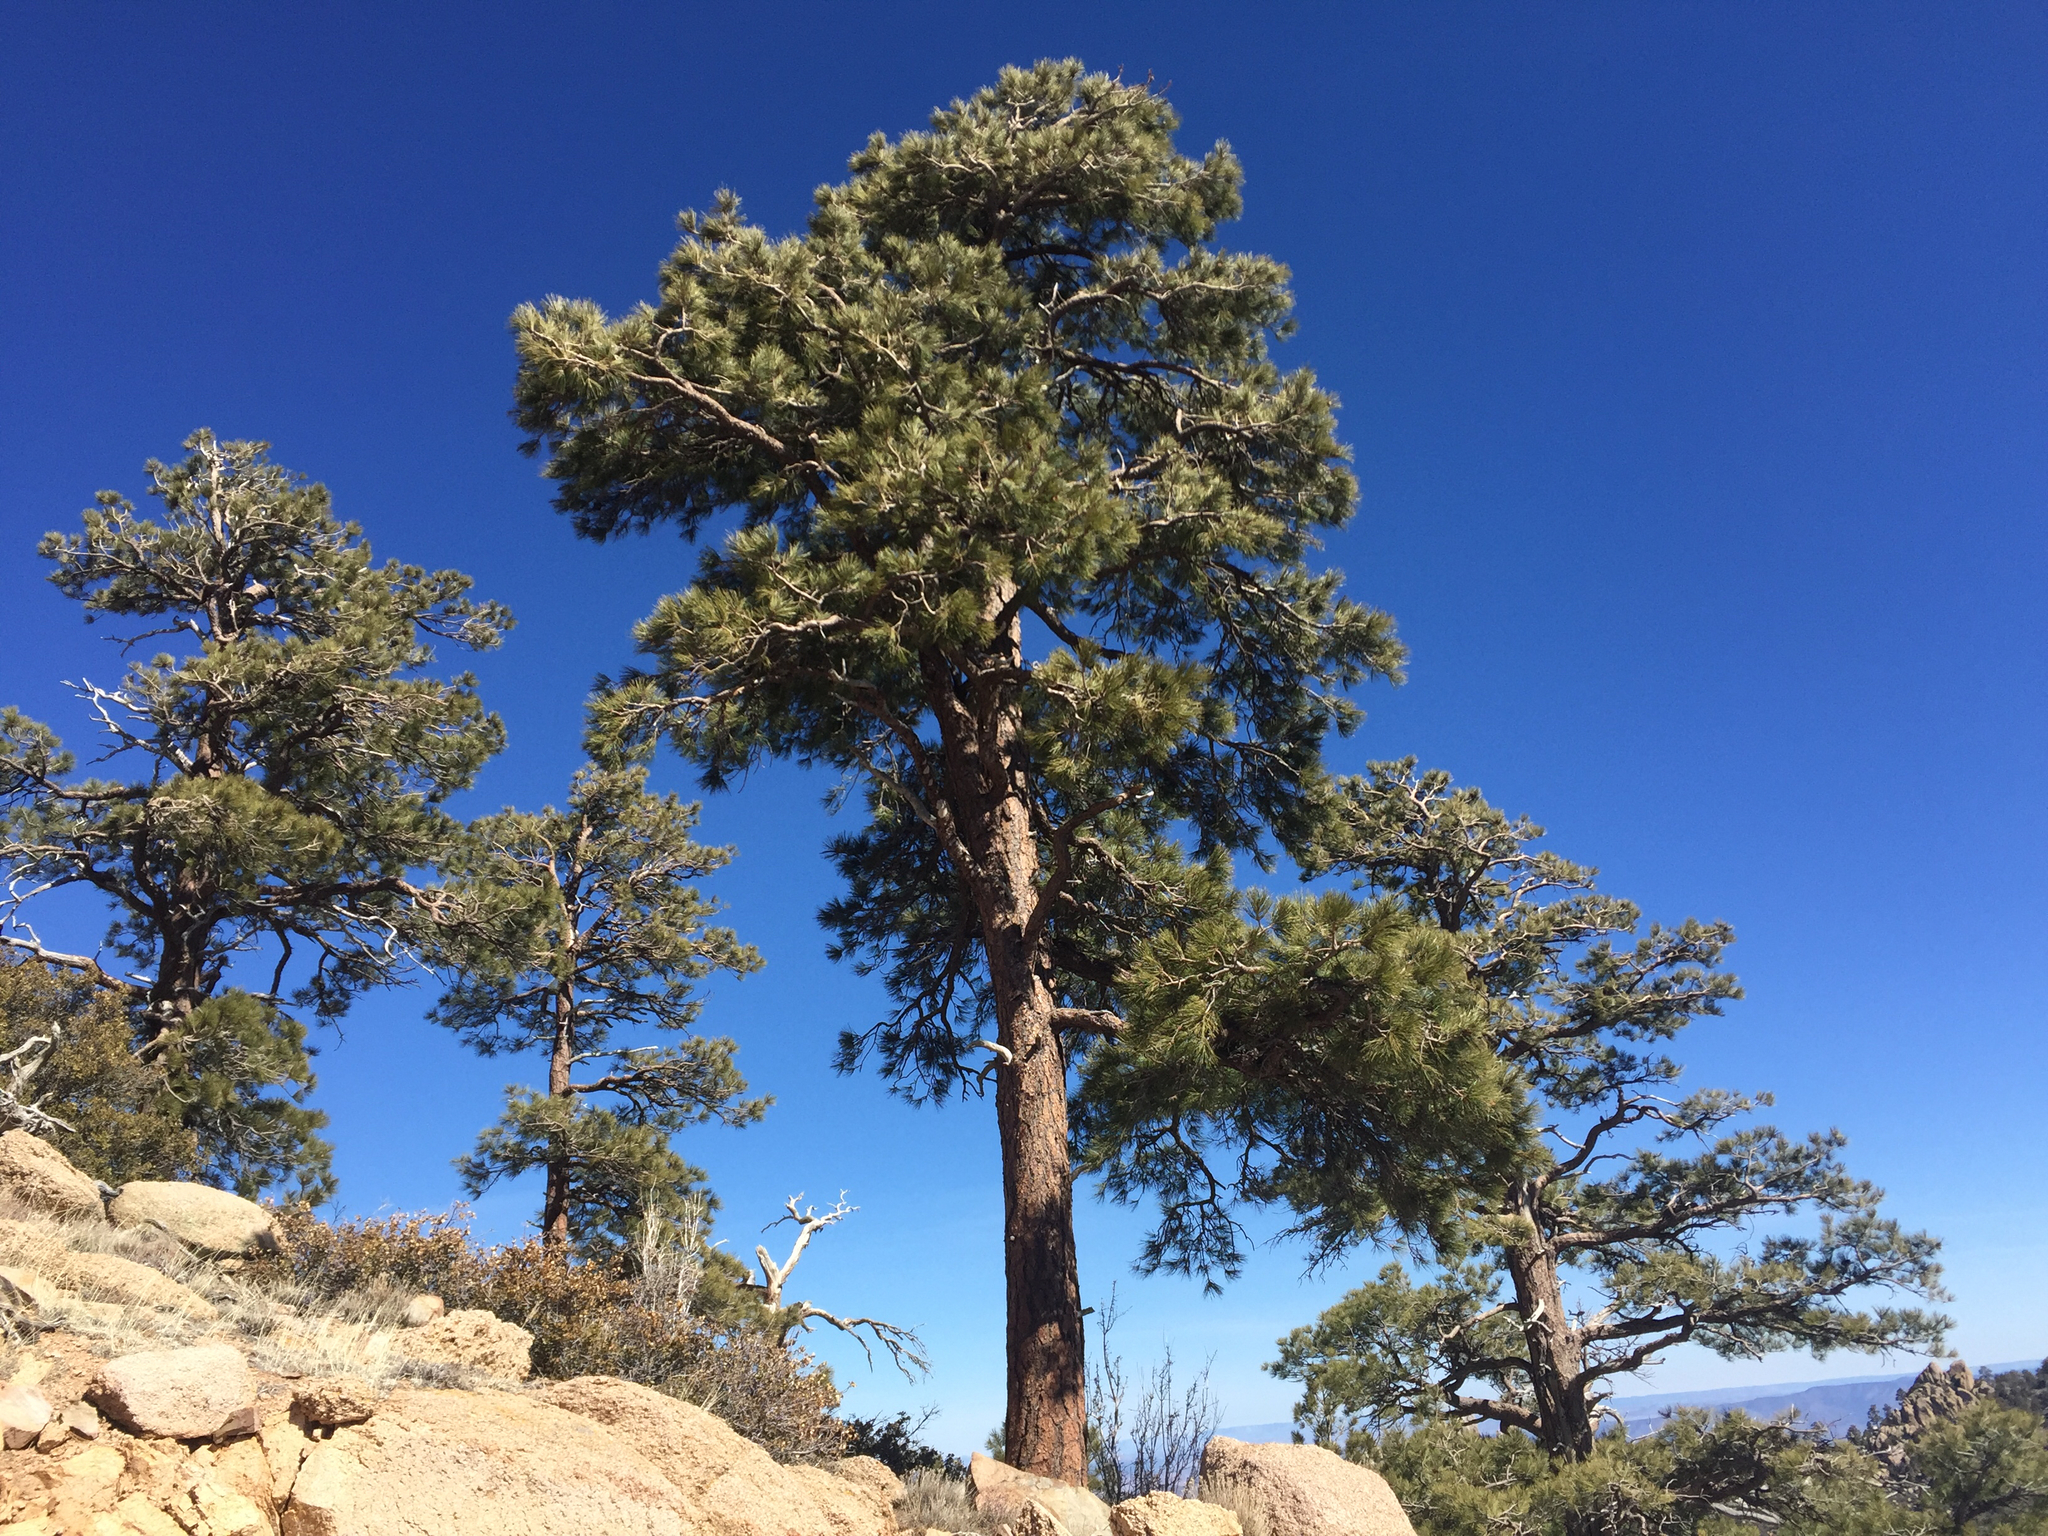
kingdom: Plantae
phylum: Tracheophyta
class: Pinopsida
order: Pinales
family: Pinaceae
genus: Pinus
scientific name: Pinus ponderosa
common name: Western yellow-pine
